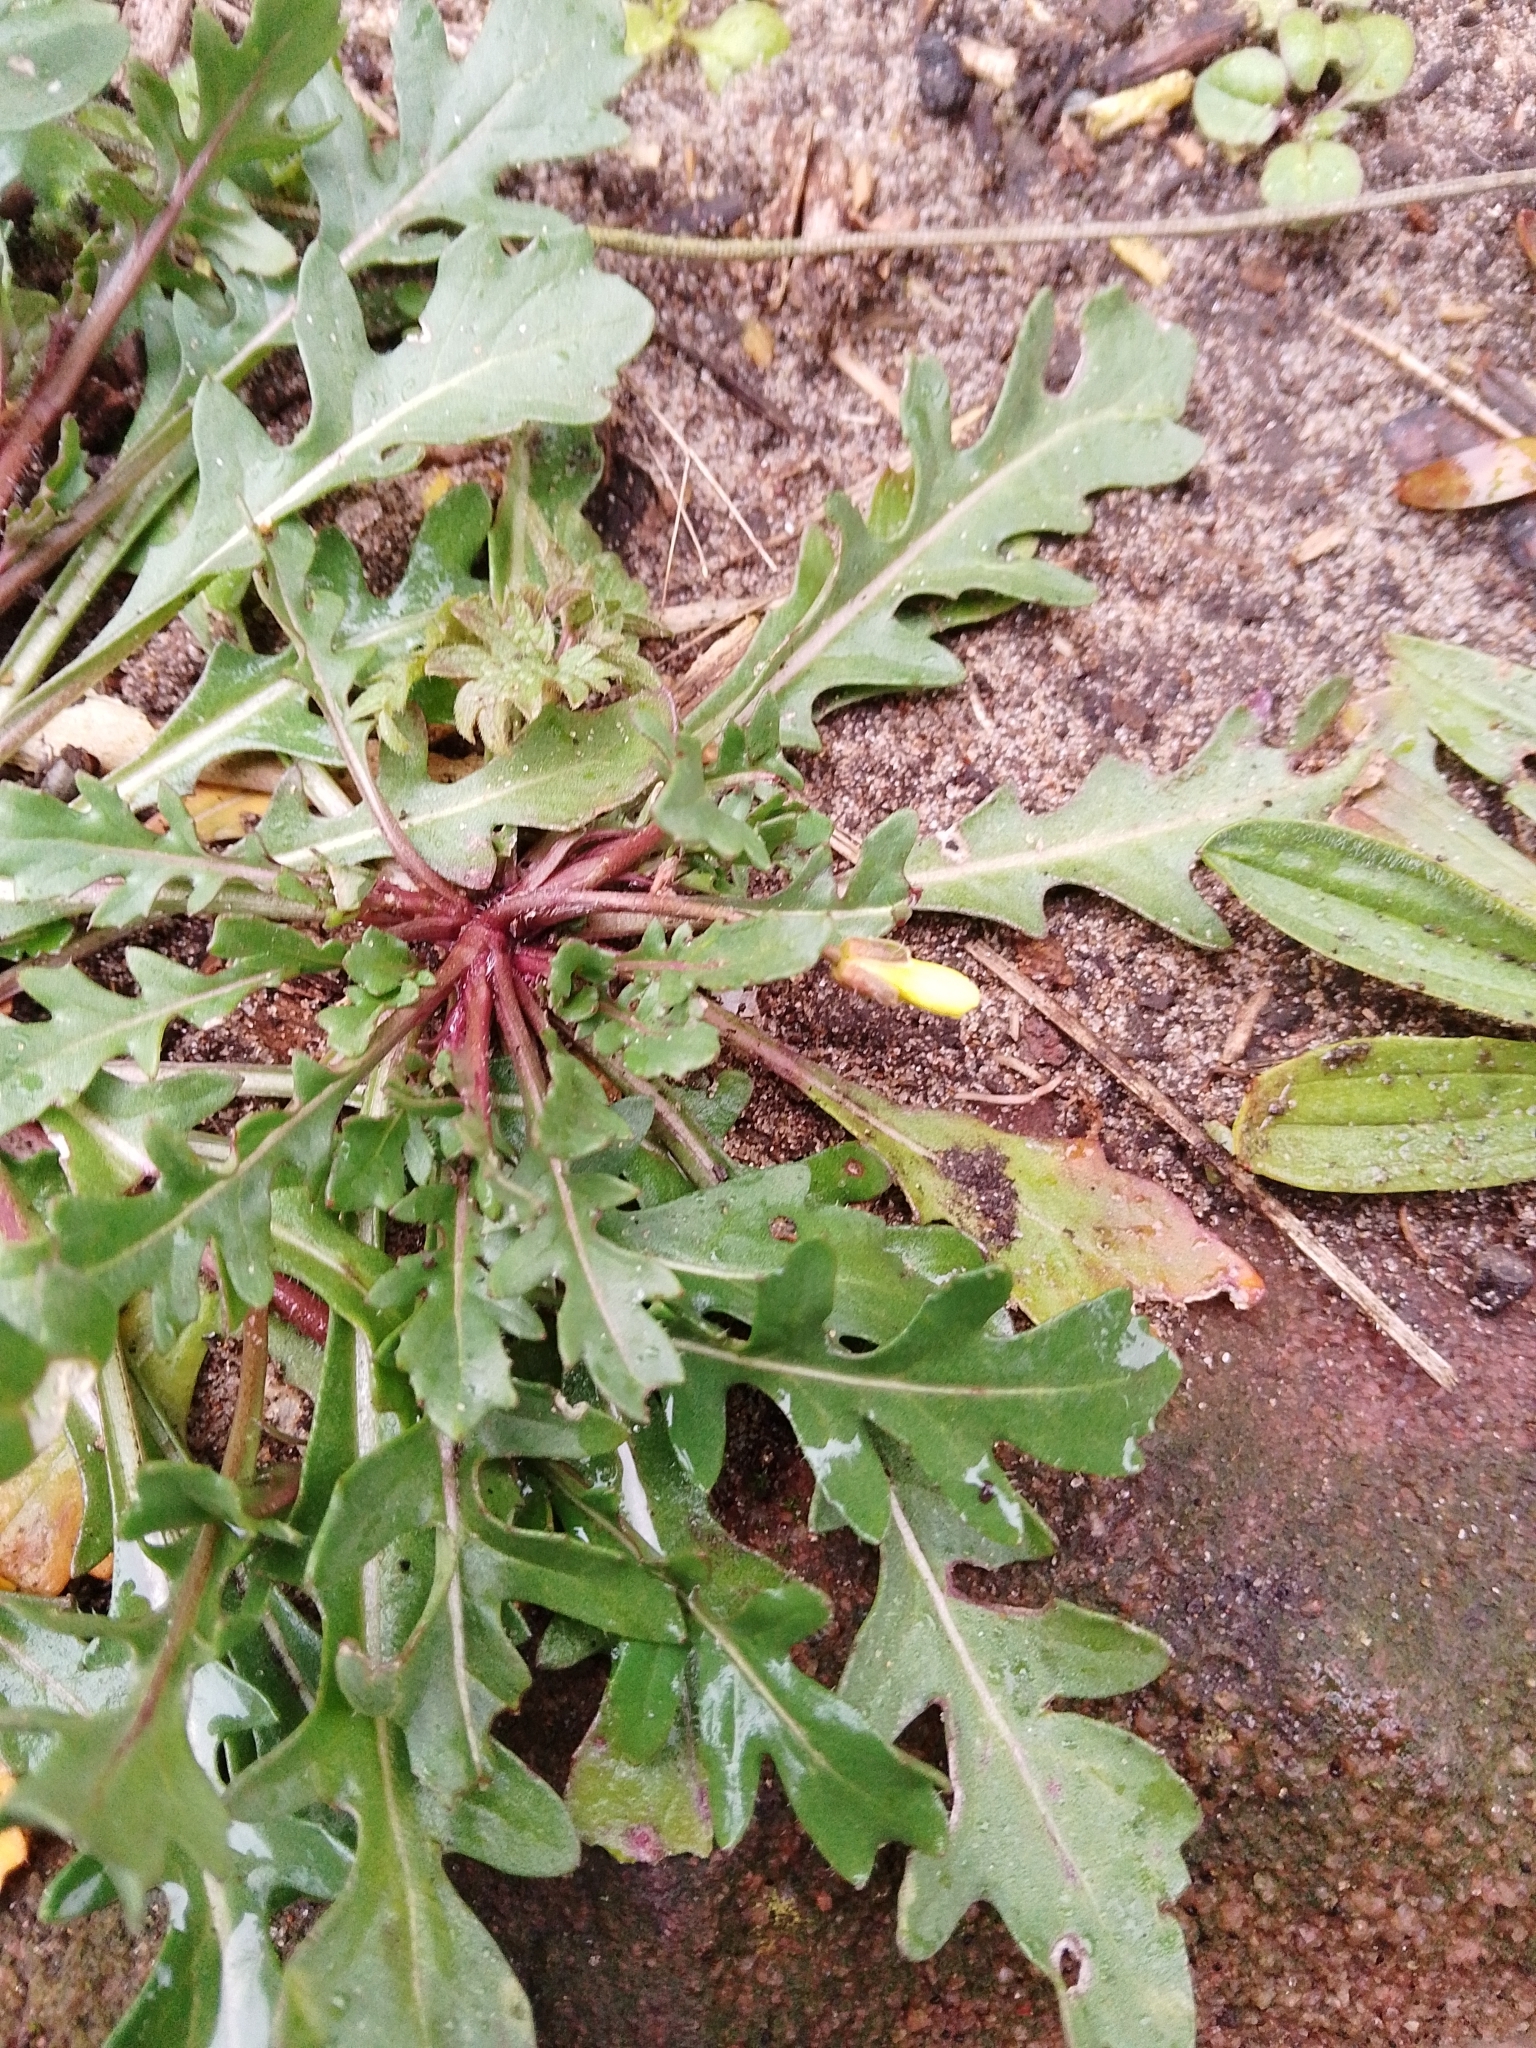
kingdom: Plantae
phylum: Tracheophyta
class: Magnoliopsida
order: Brassicales
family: Brassicaceae
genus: Diplotaxis
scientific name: Diplotaxis muralis
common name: Annual wall-rocket
